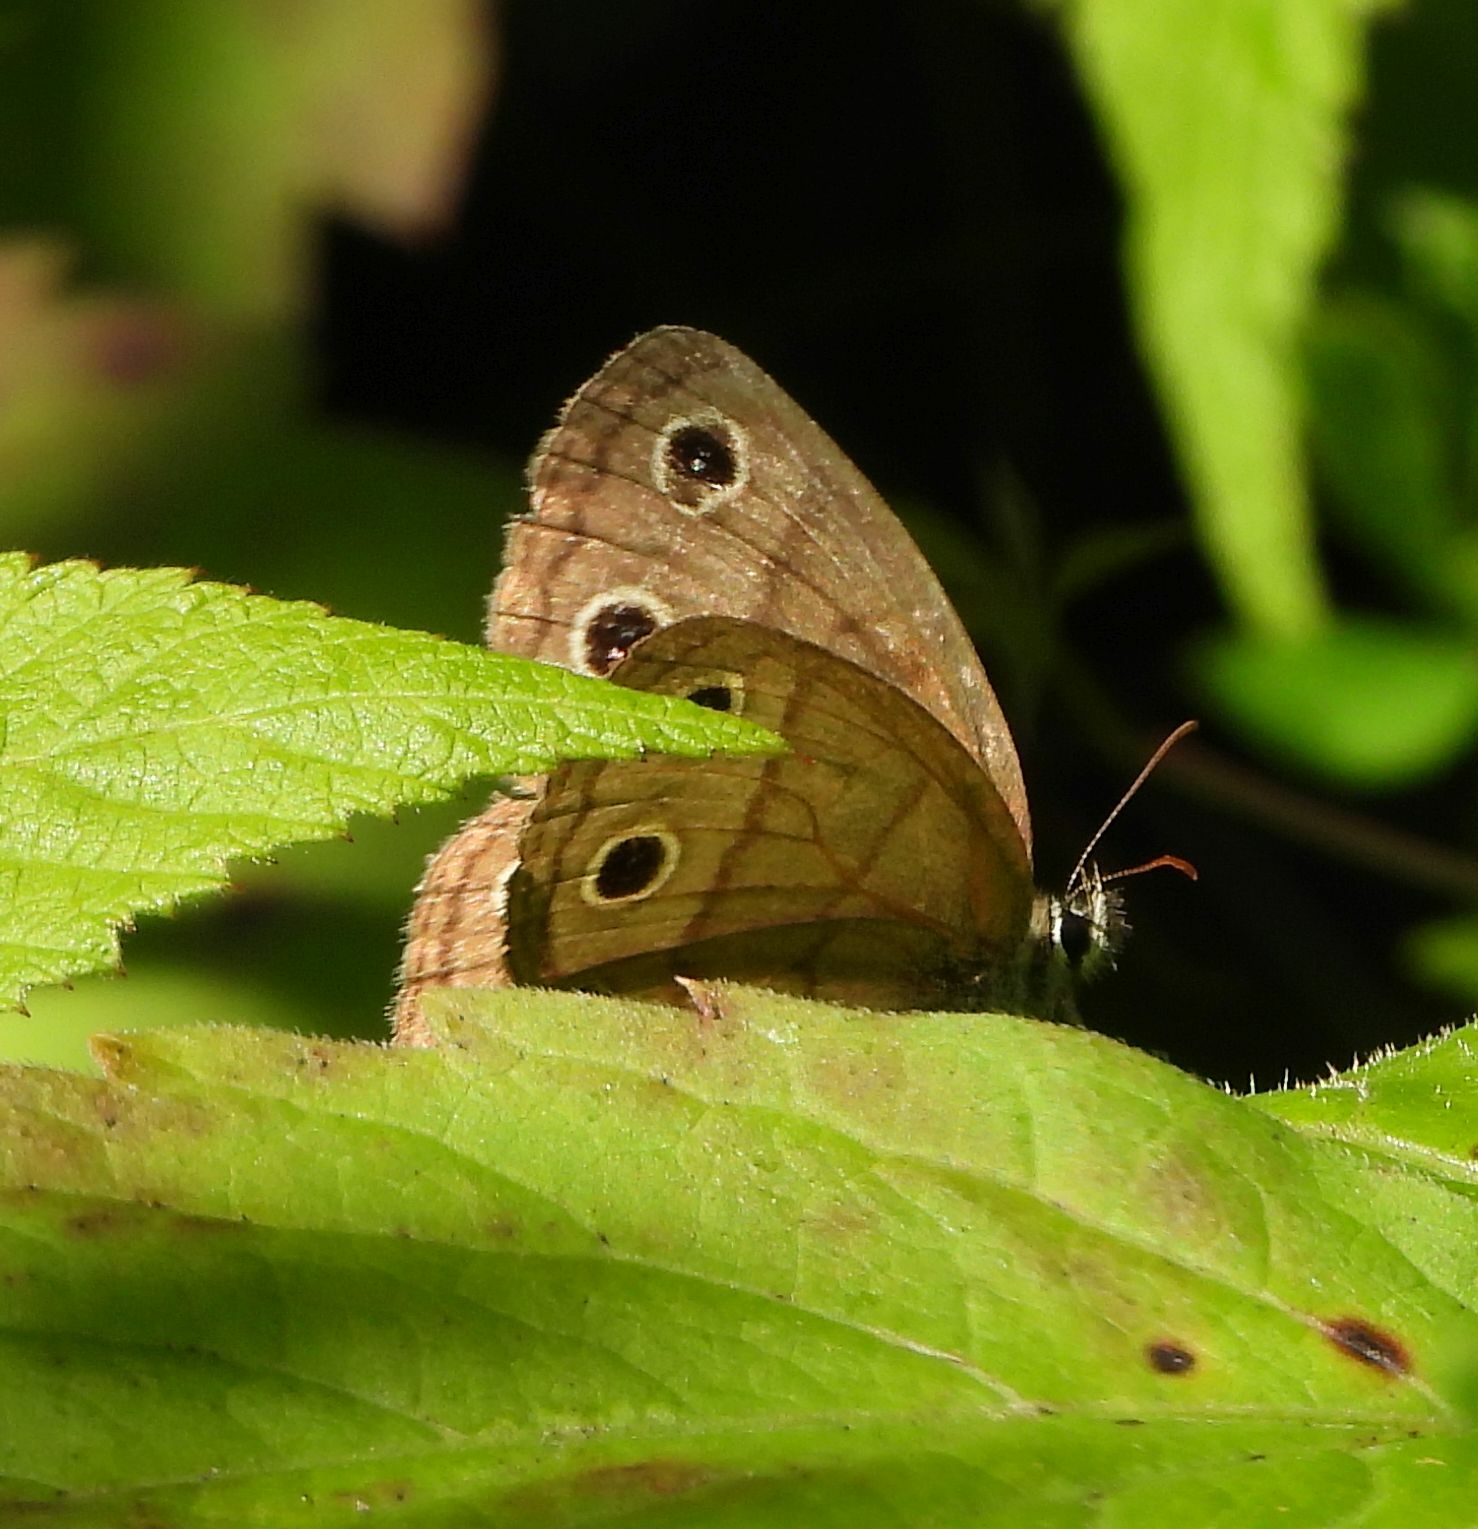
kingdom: Animalia
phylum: Arthropoda
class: Insecta
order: Lepidoptera
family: Nymphalidae
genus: Euptychia
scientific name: Euptychia cymela
